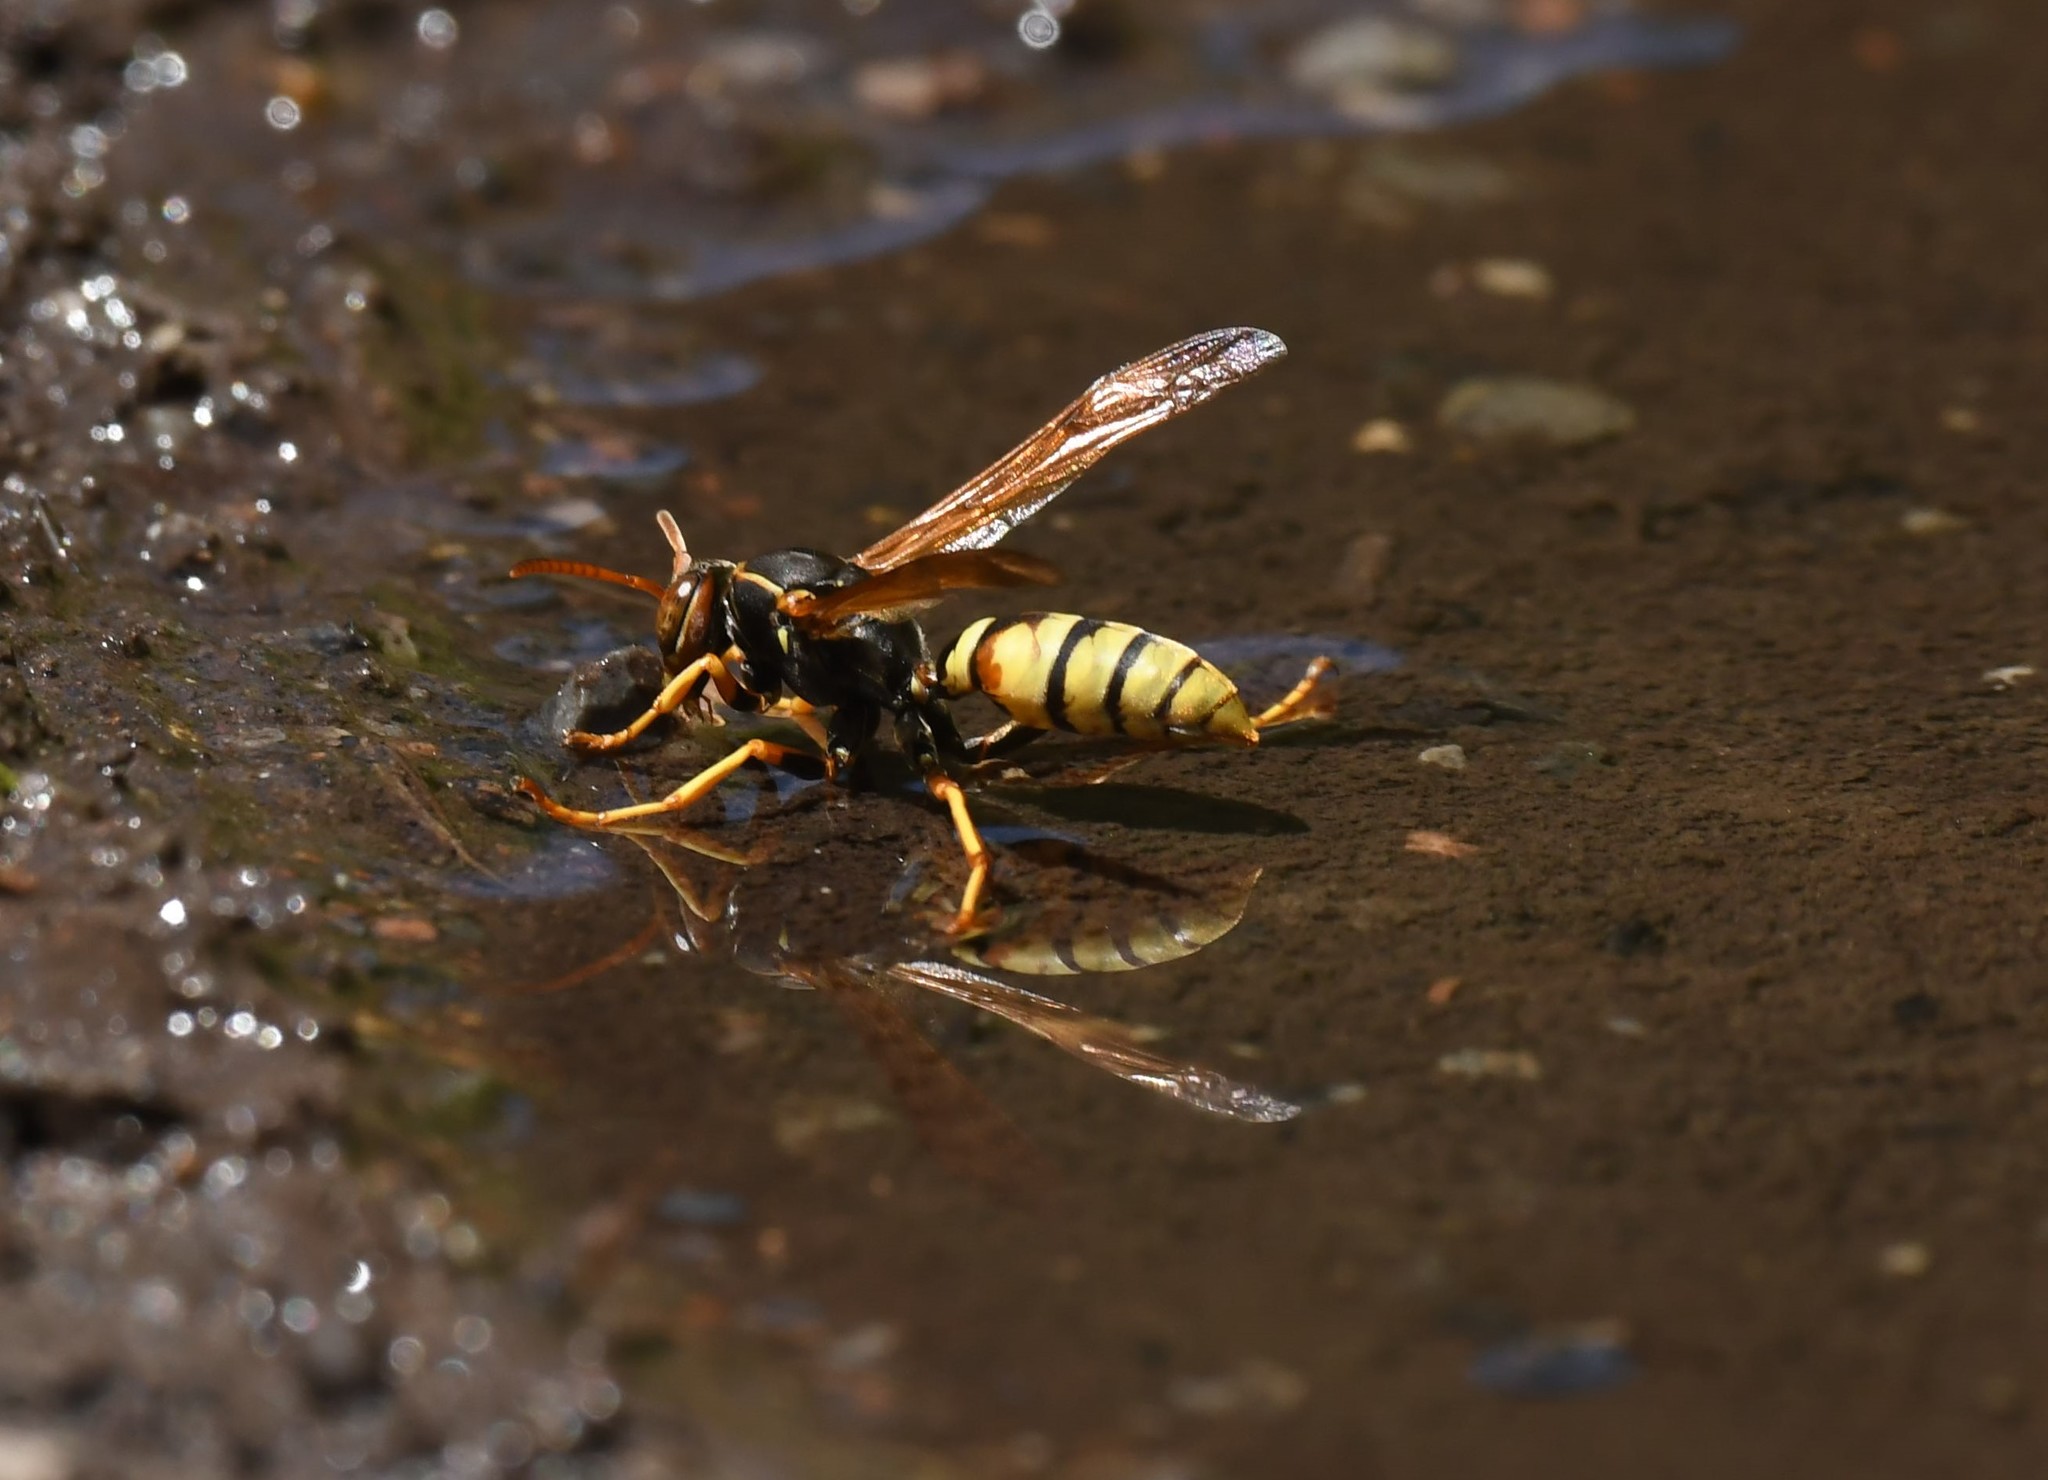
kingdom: Animalia
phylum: Arthropoda
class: Insecta
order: Hymenoptera
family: Eumenidae
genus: Polistes
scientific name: Polistes aurifer
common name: Paper wasp
